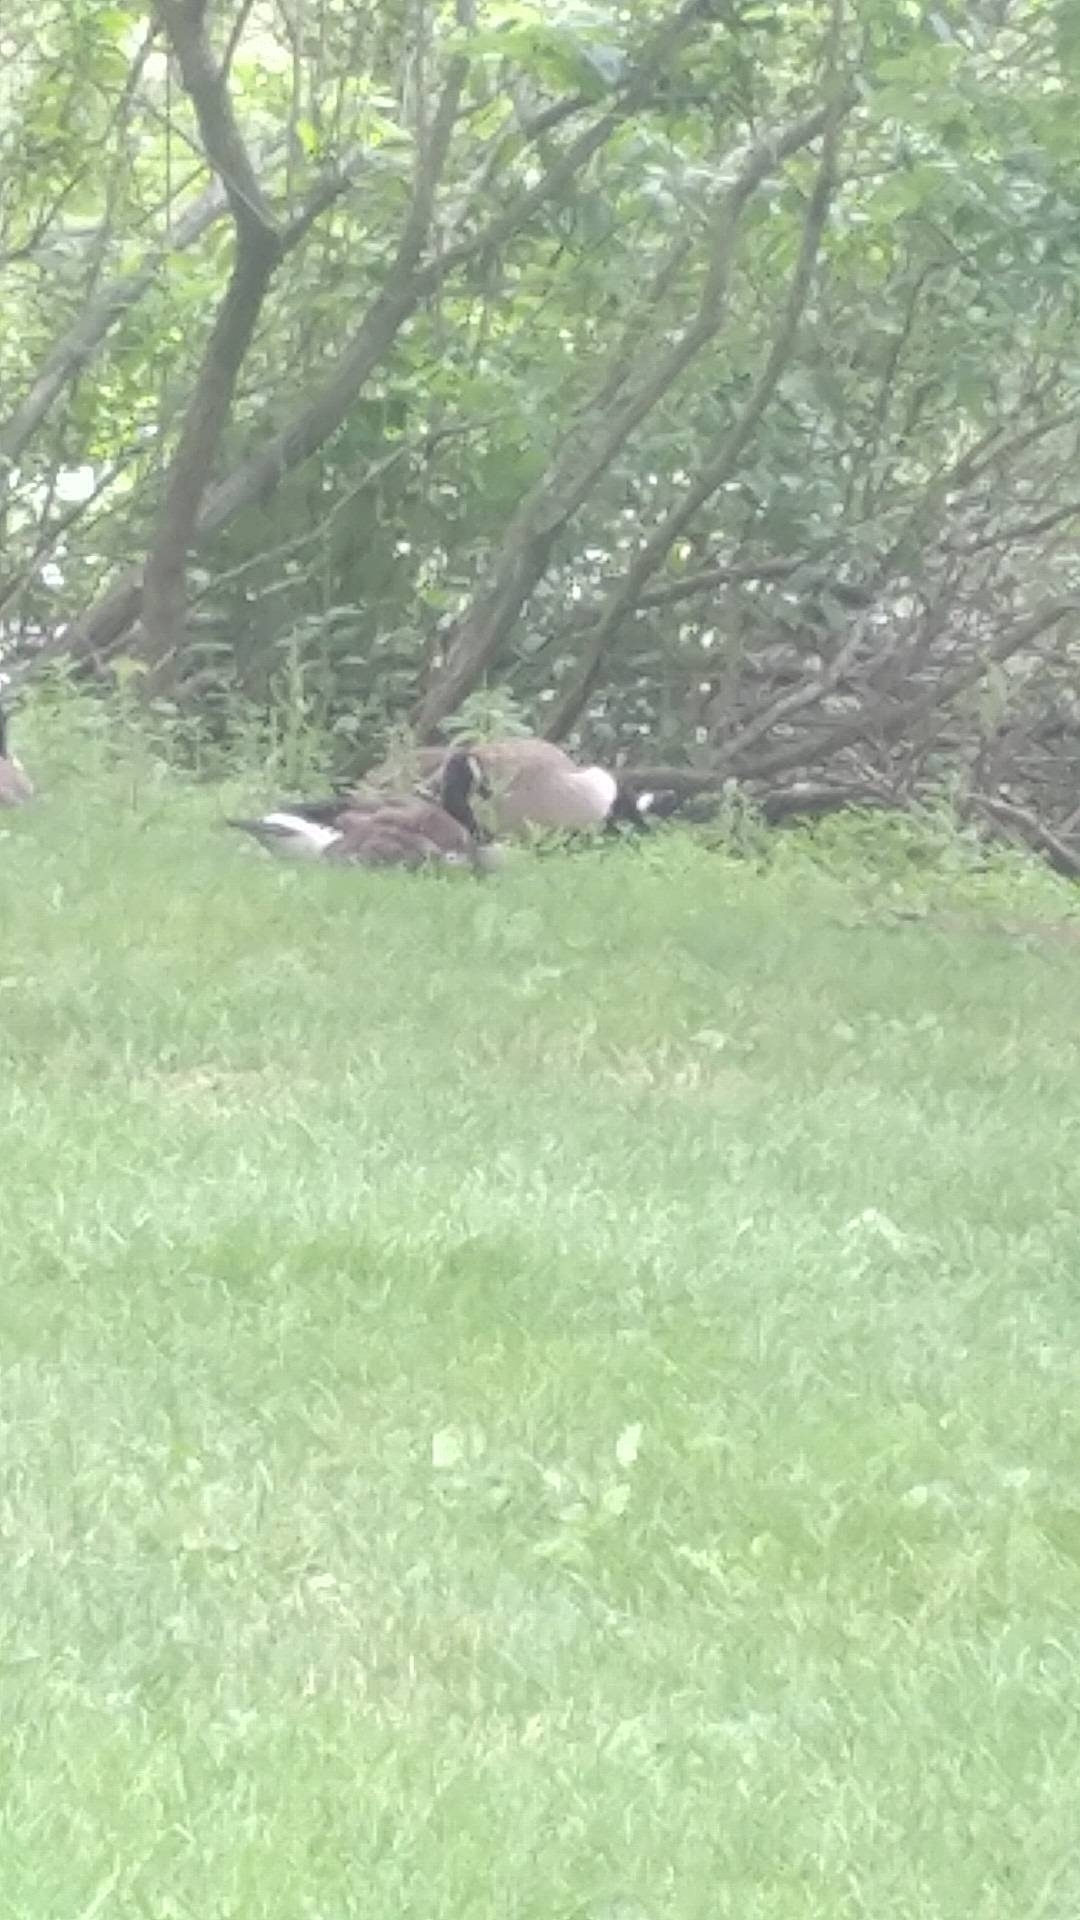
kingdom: Animalia
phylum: Chordata
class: Aves
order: Anseriformes
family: Anatidae
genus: Branta
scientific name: Branta canadensis
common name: Canada goose
